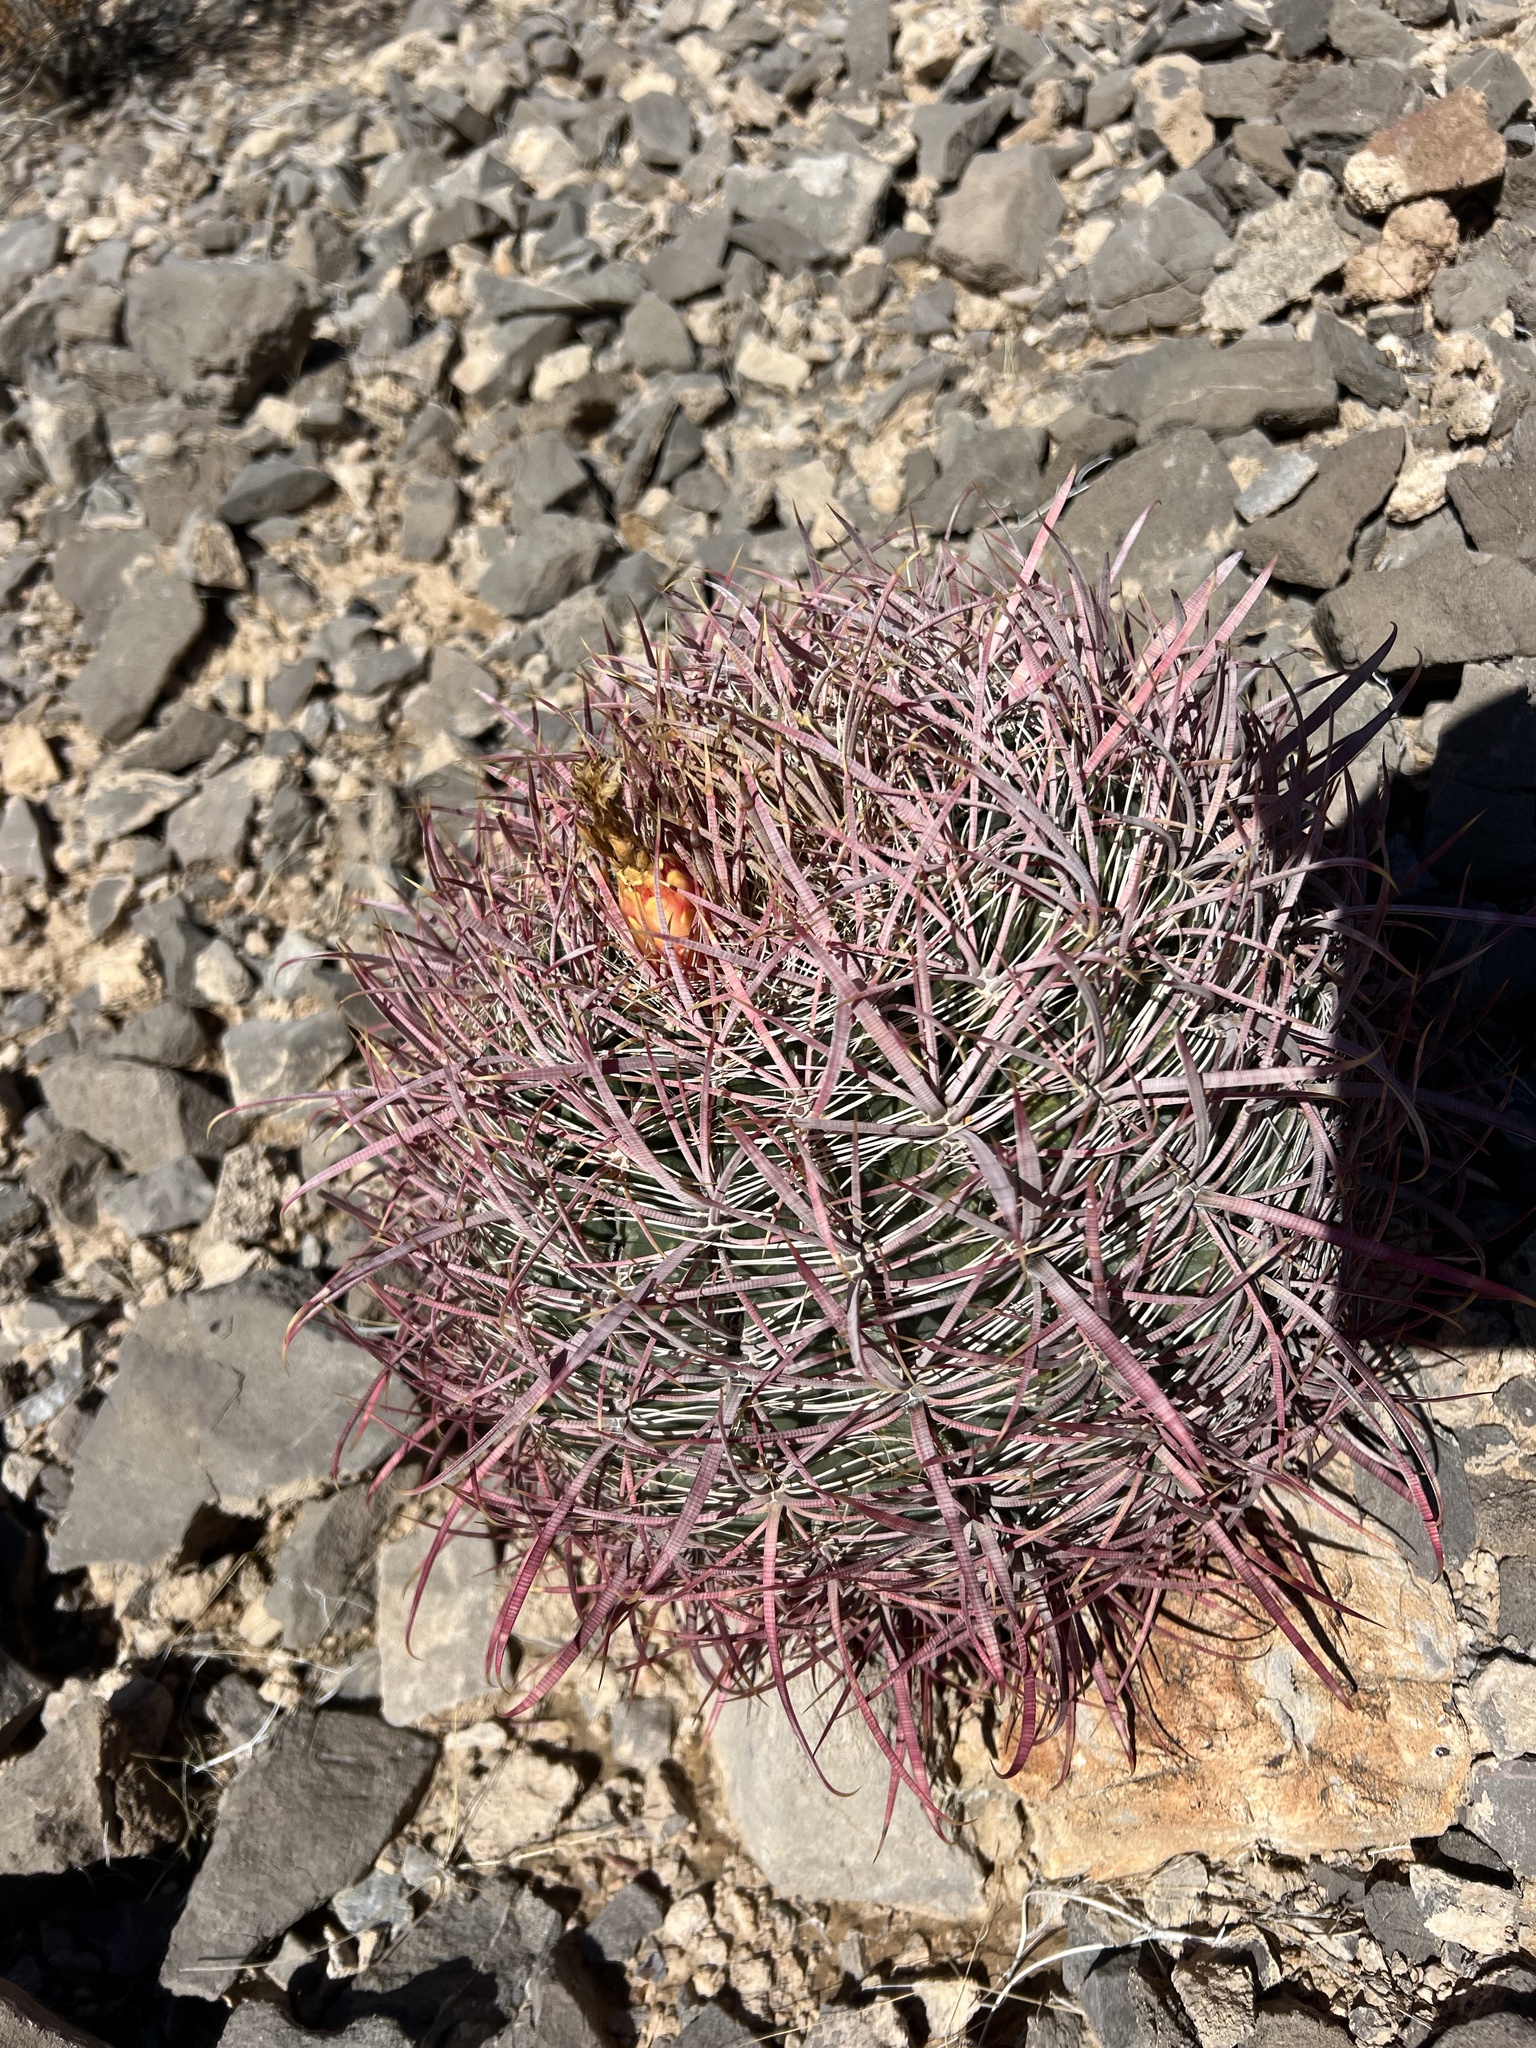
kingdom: Plantae
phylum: Tracheophyta
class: Magnoliopsida
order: Caryophyllales
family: Cactaceae
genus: Ferocactus
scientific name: Ferocactus cylindraceus
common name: California barrel cactus
